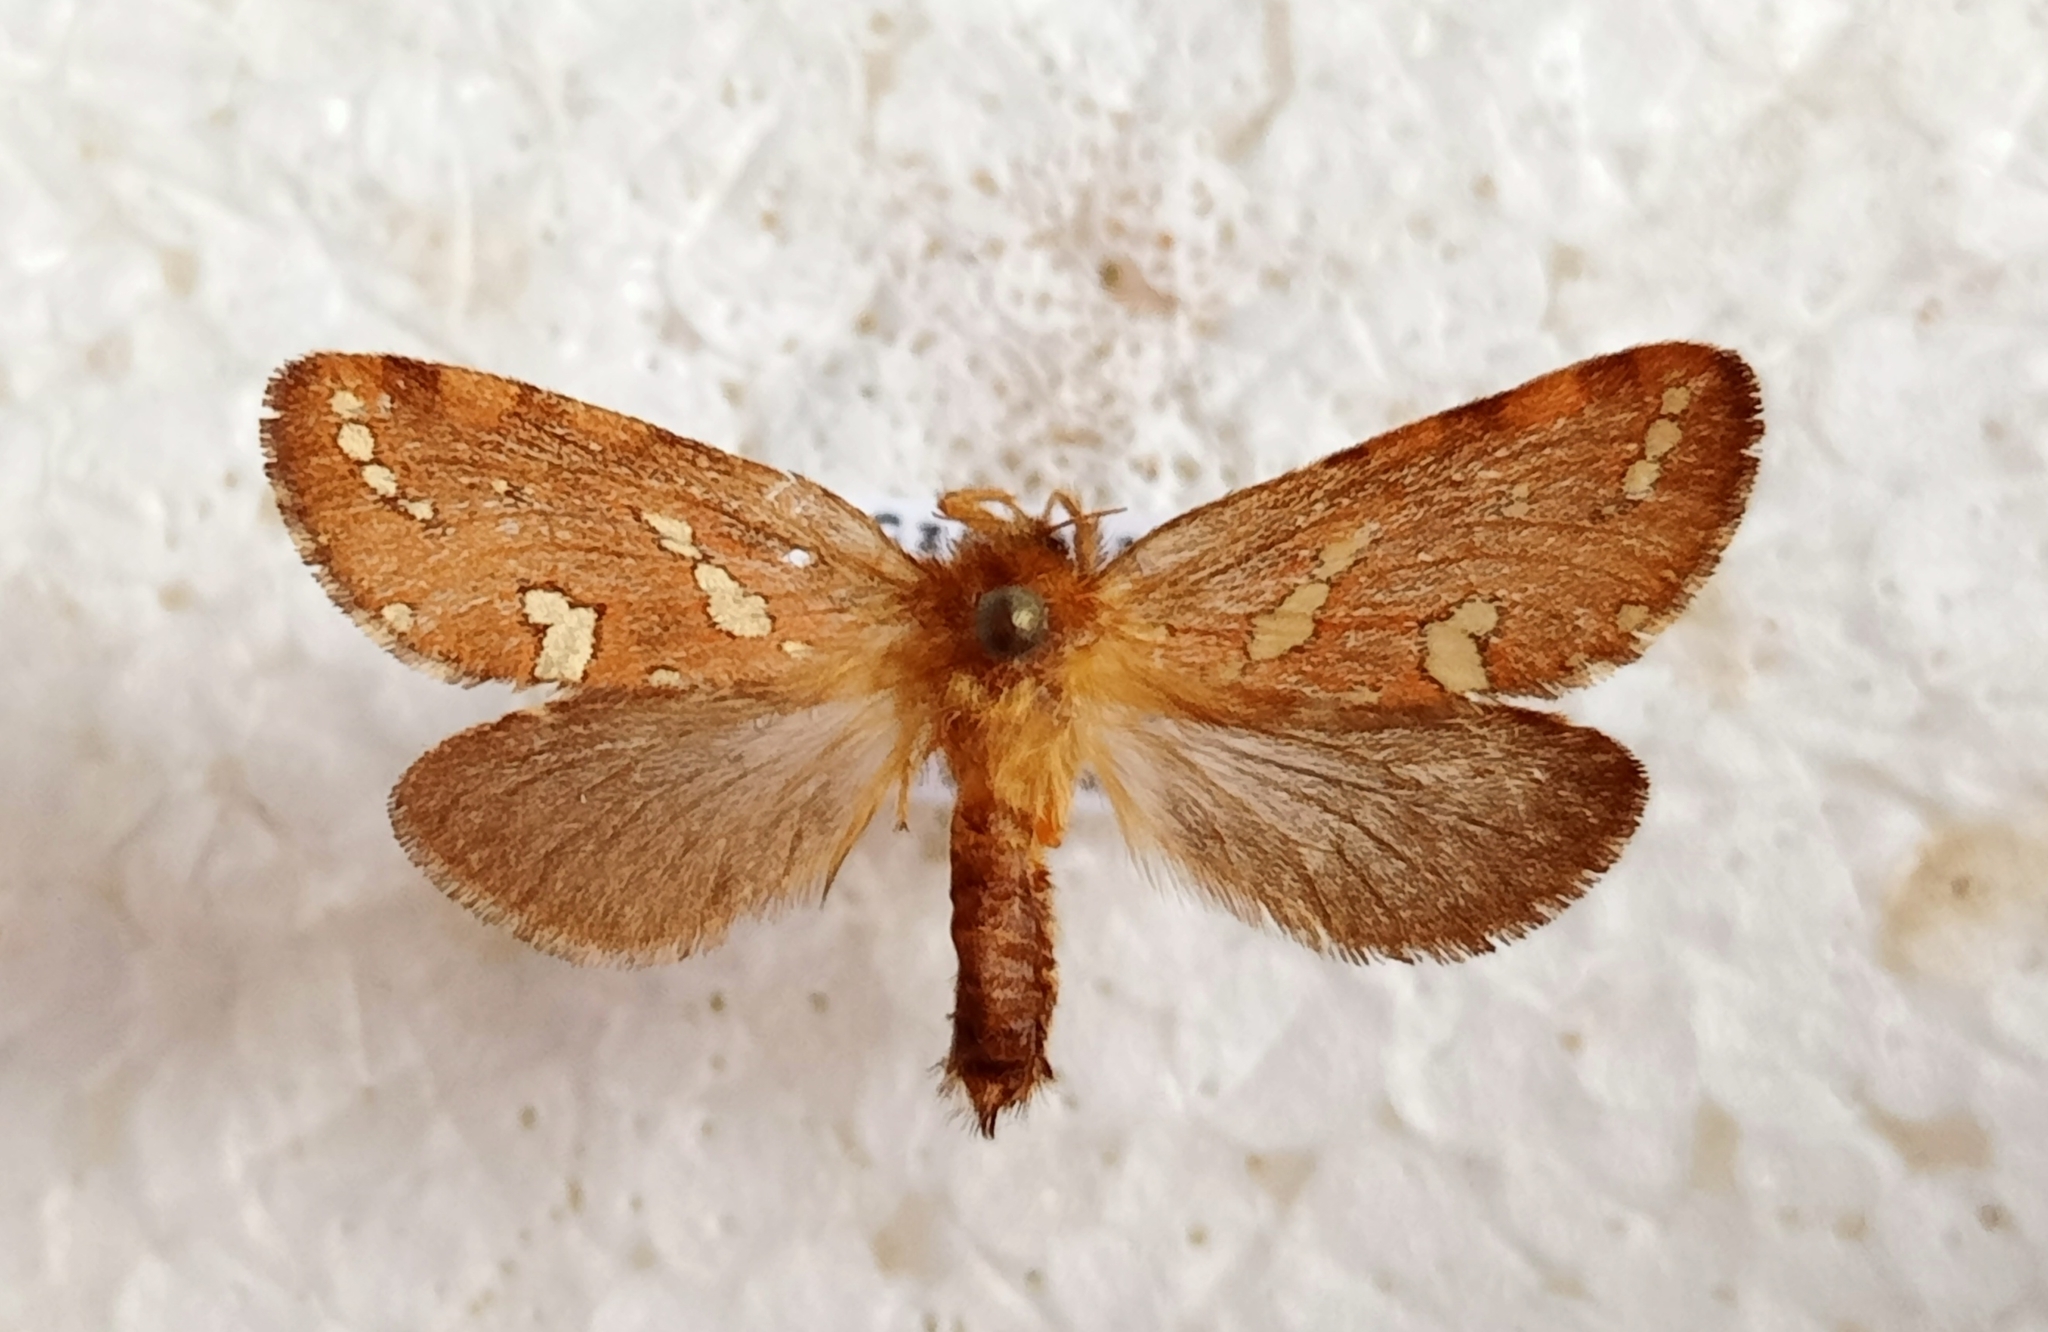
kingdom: Animalia
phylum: Arthropoda
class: Insecta
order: Lepidoptera
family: Hepialidae
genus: Phymatopus
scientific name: Phymatopus hecta
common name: Gold swift
